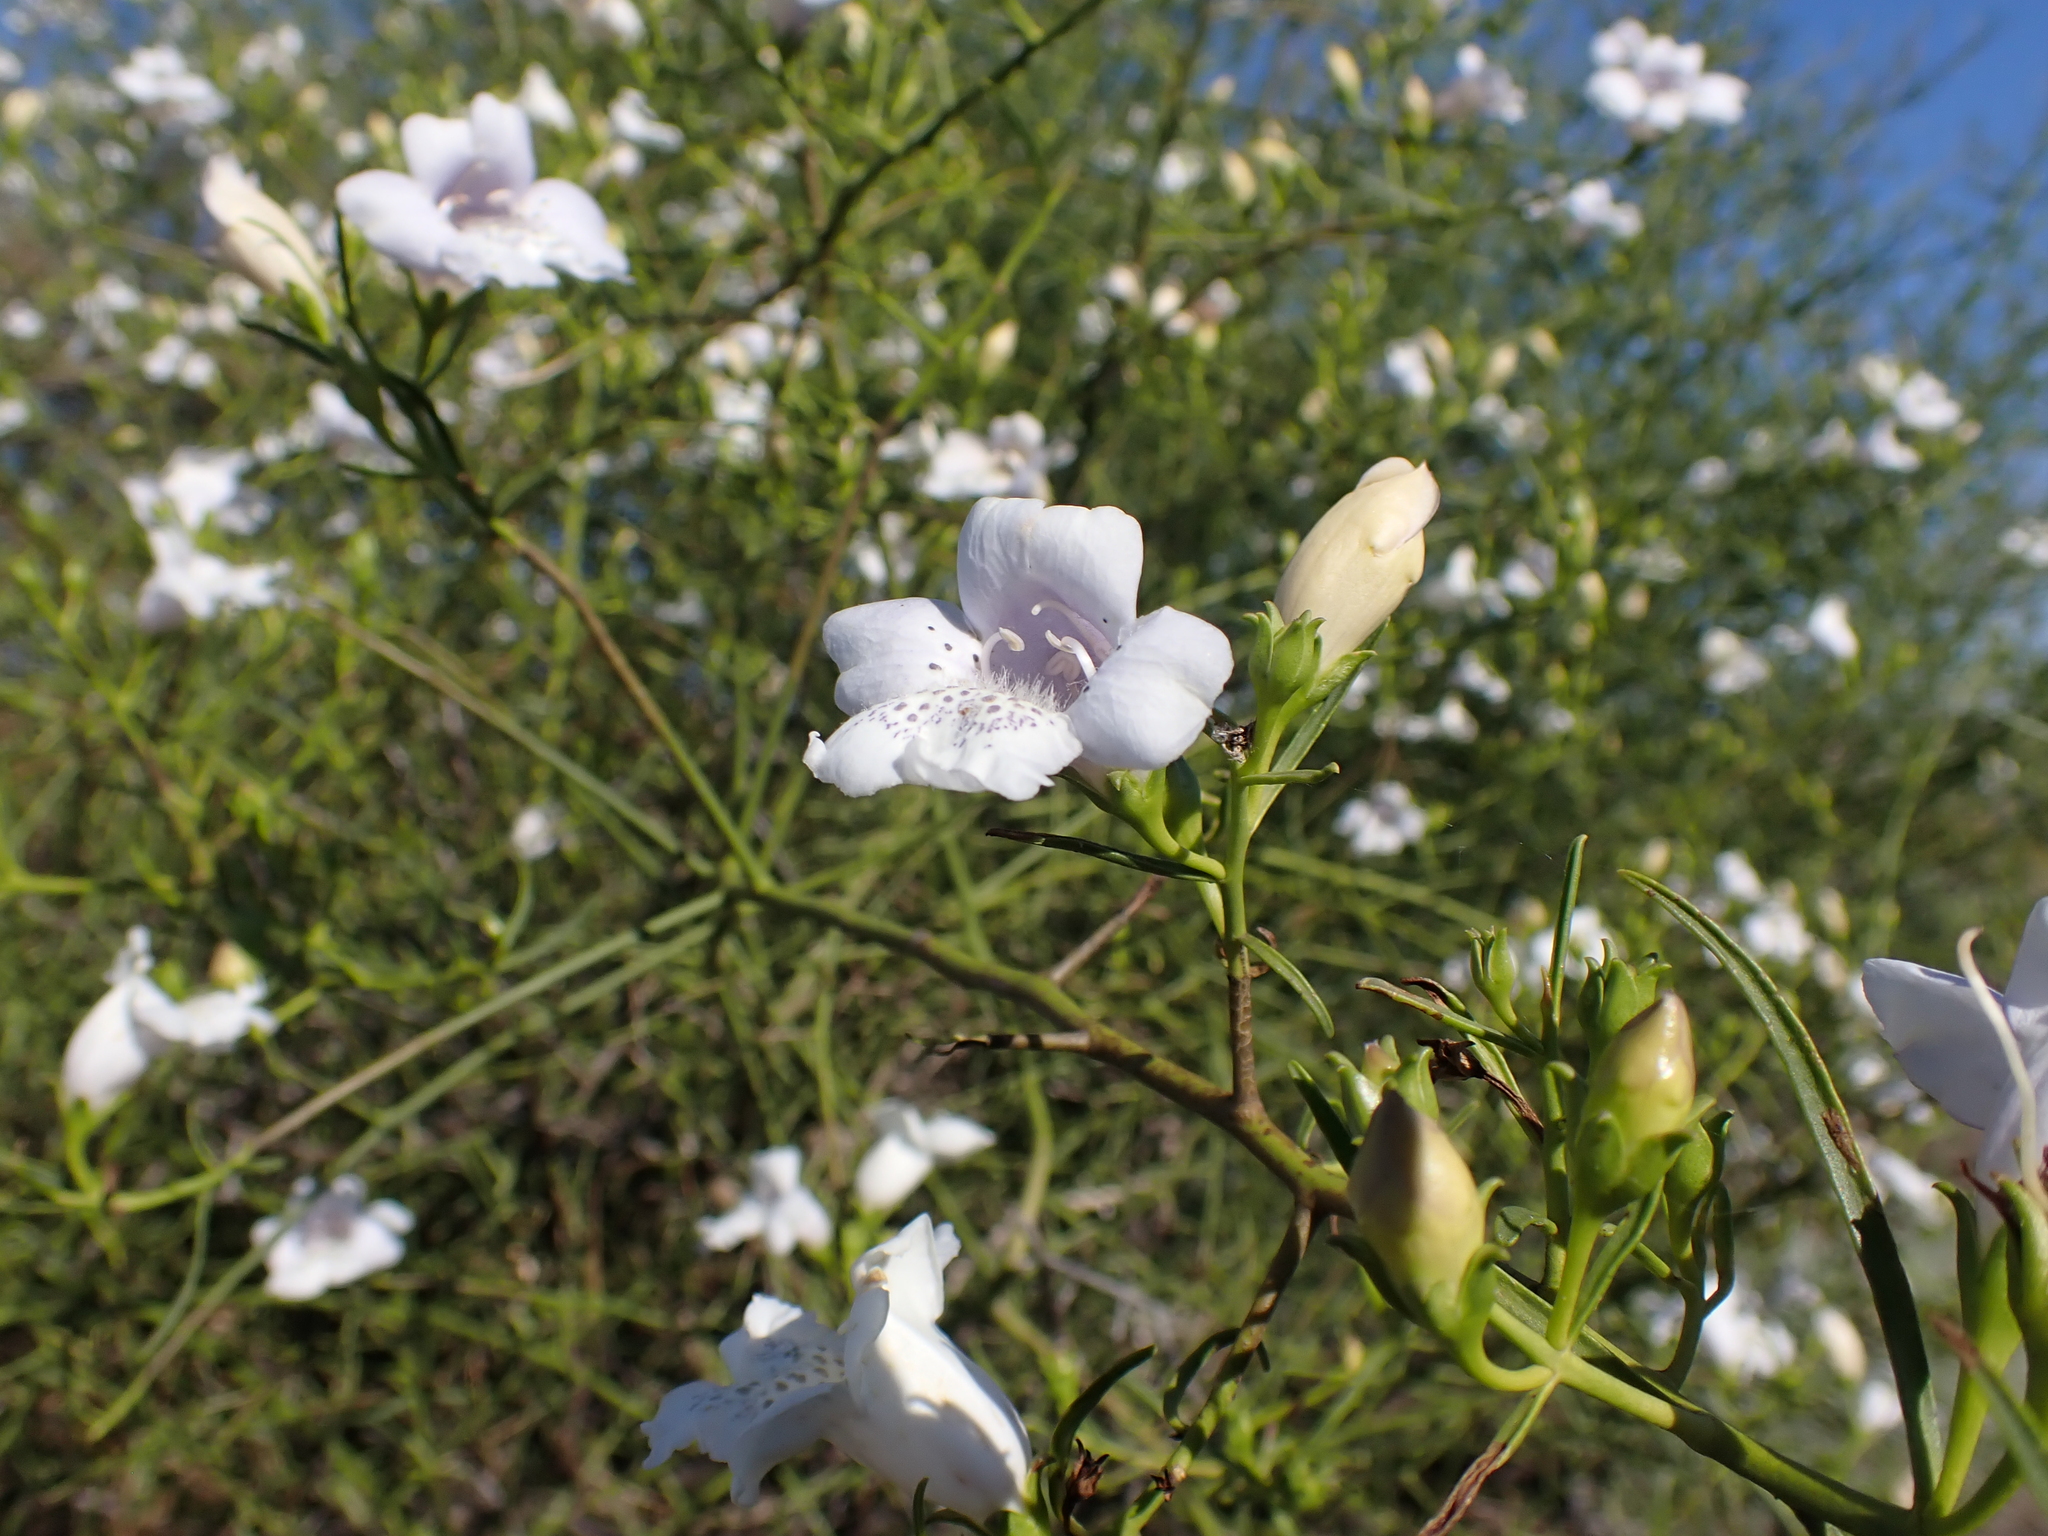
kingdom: Plantae
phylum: Tracheophyta
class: Magnoliopsida
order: Lamiales
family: Scrophulariaceae
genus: Eremophila
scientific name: Eremophila polyclada
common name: Lignum-fuchsia
